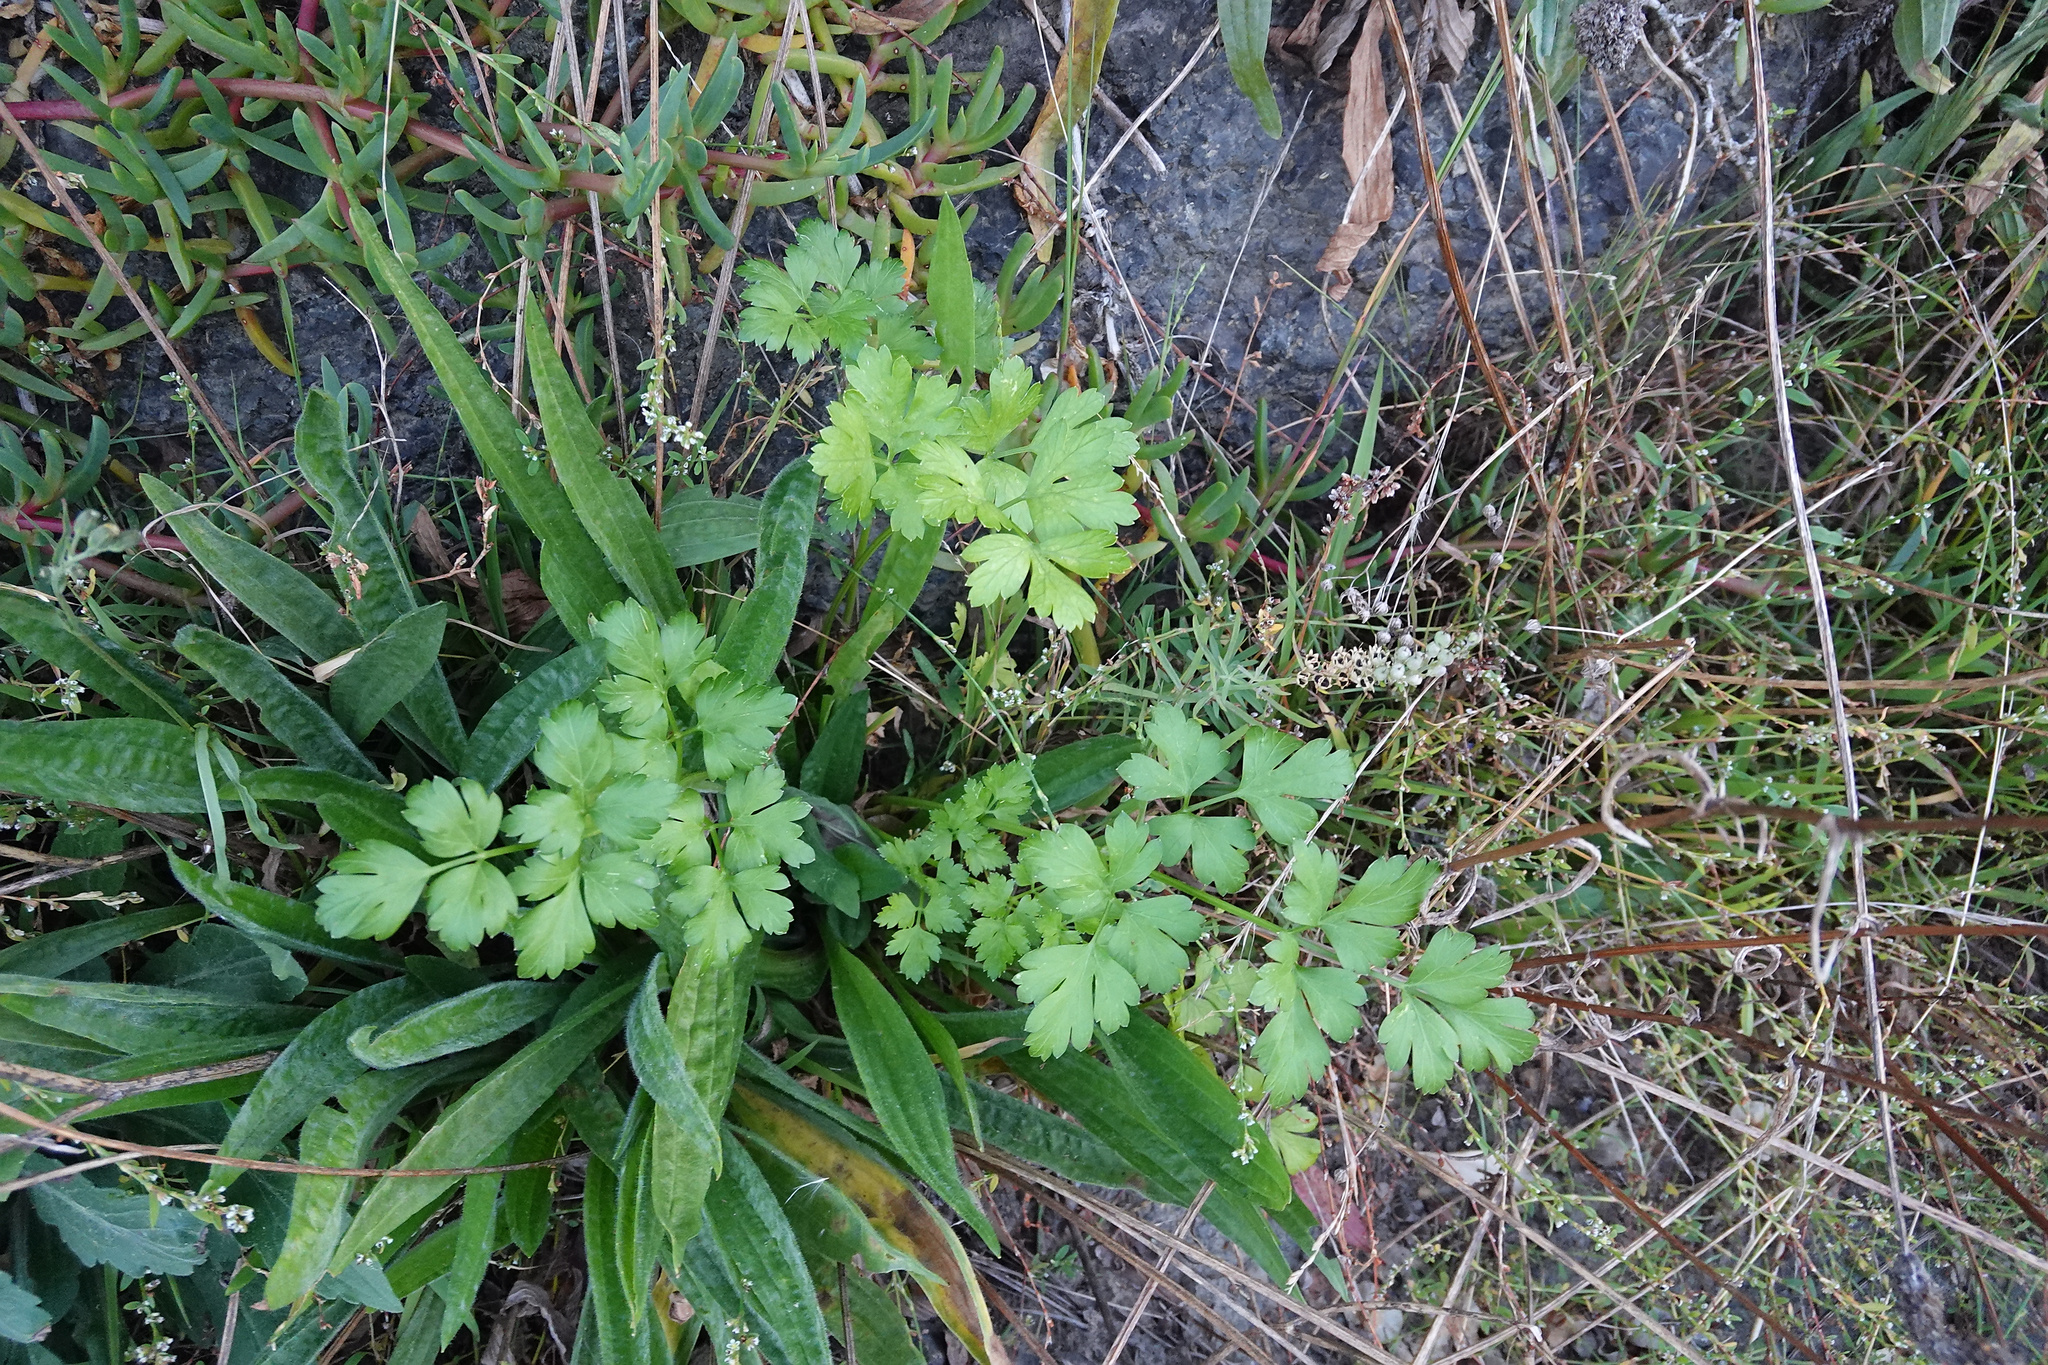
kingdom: Plantae
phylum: Tracheophyta
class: Magnoliopsida
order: Apiales
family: Apiaceae
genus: Petroselinum
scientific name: Petroselinum crispum
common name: Parsley
